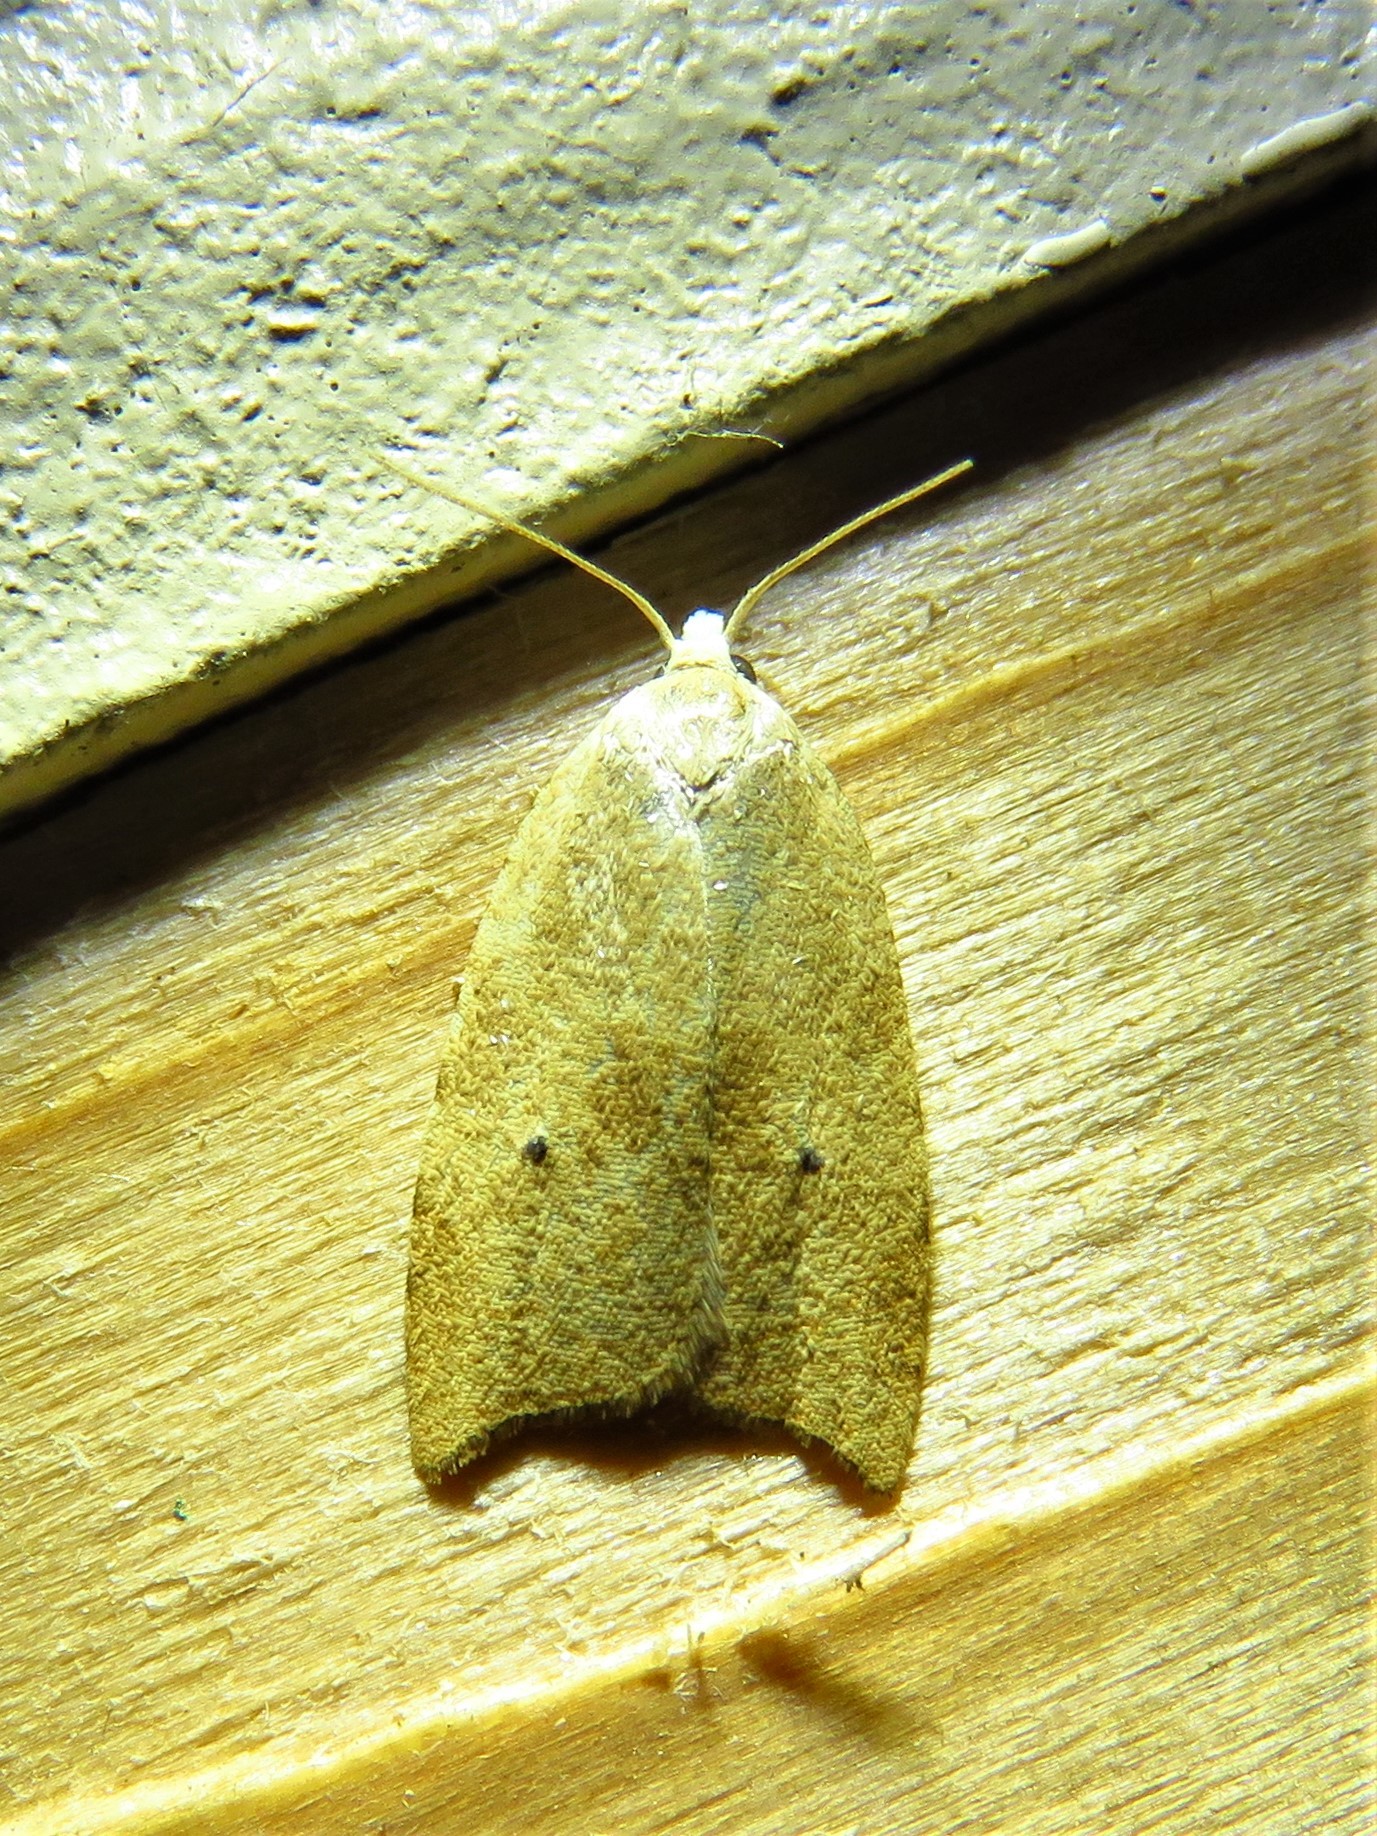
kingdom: Animalia
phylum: Arthropoda
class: Insecta
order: Lepidoptera
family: Tortricidae
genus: Coelostathma
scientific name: Coelostathma discopunctana
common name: Batman moth
